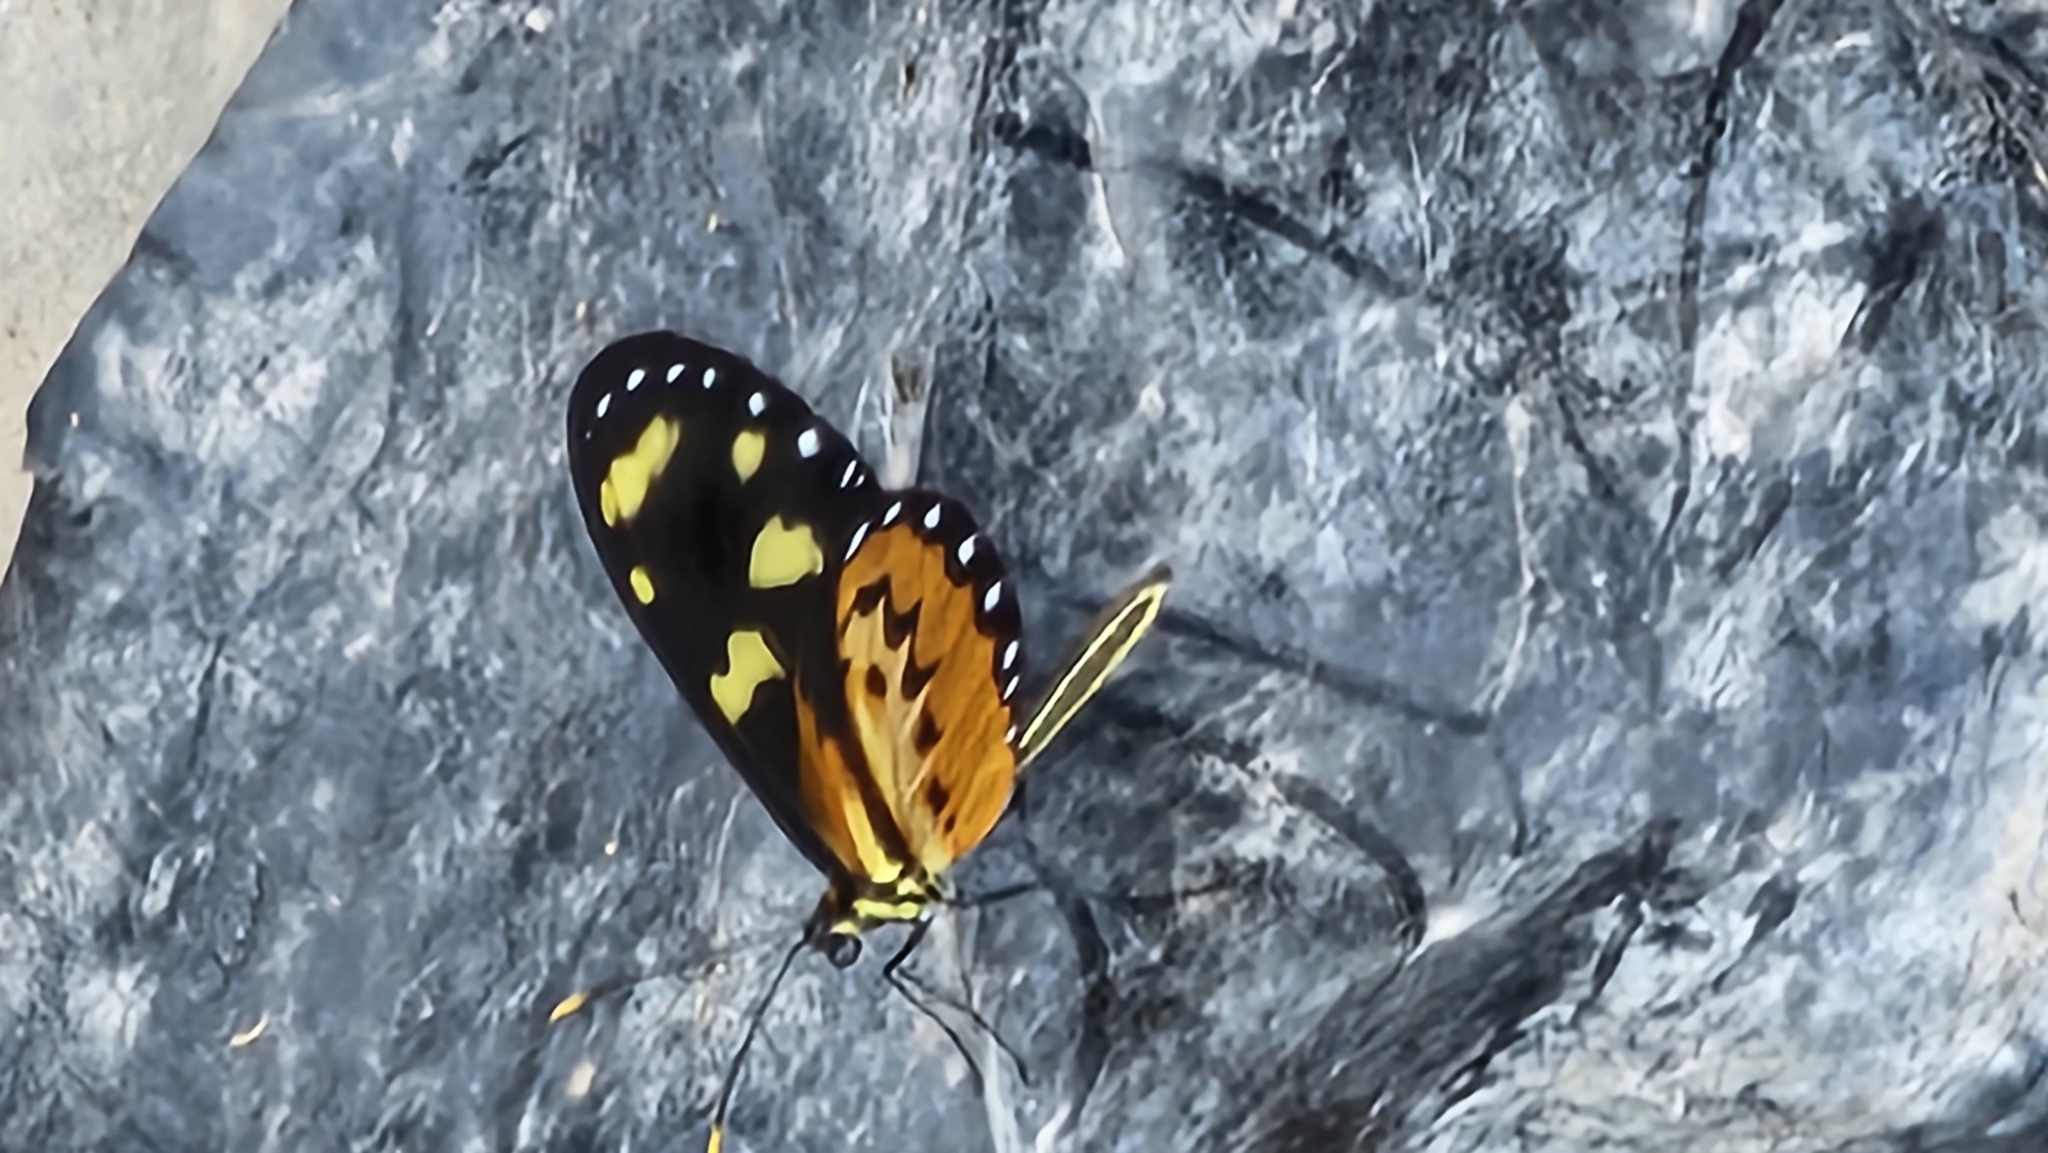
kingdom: Animalia
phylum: Arthropoda
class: Insecta
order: Lepidoptera
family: Nymphalidae
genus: Mechanitis
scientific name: Mechanitis lysimnia
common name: Lysimnia tigerwing
